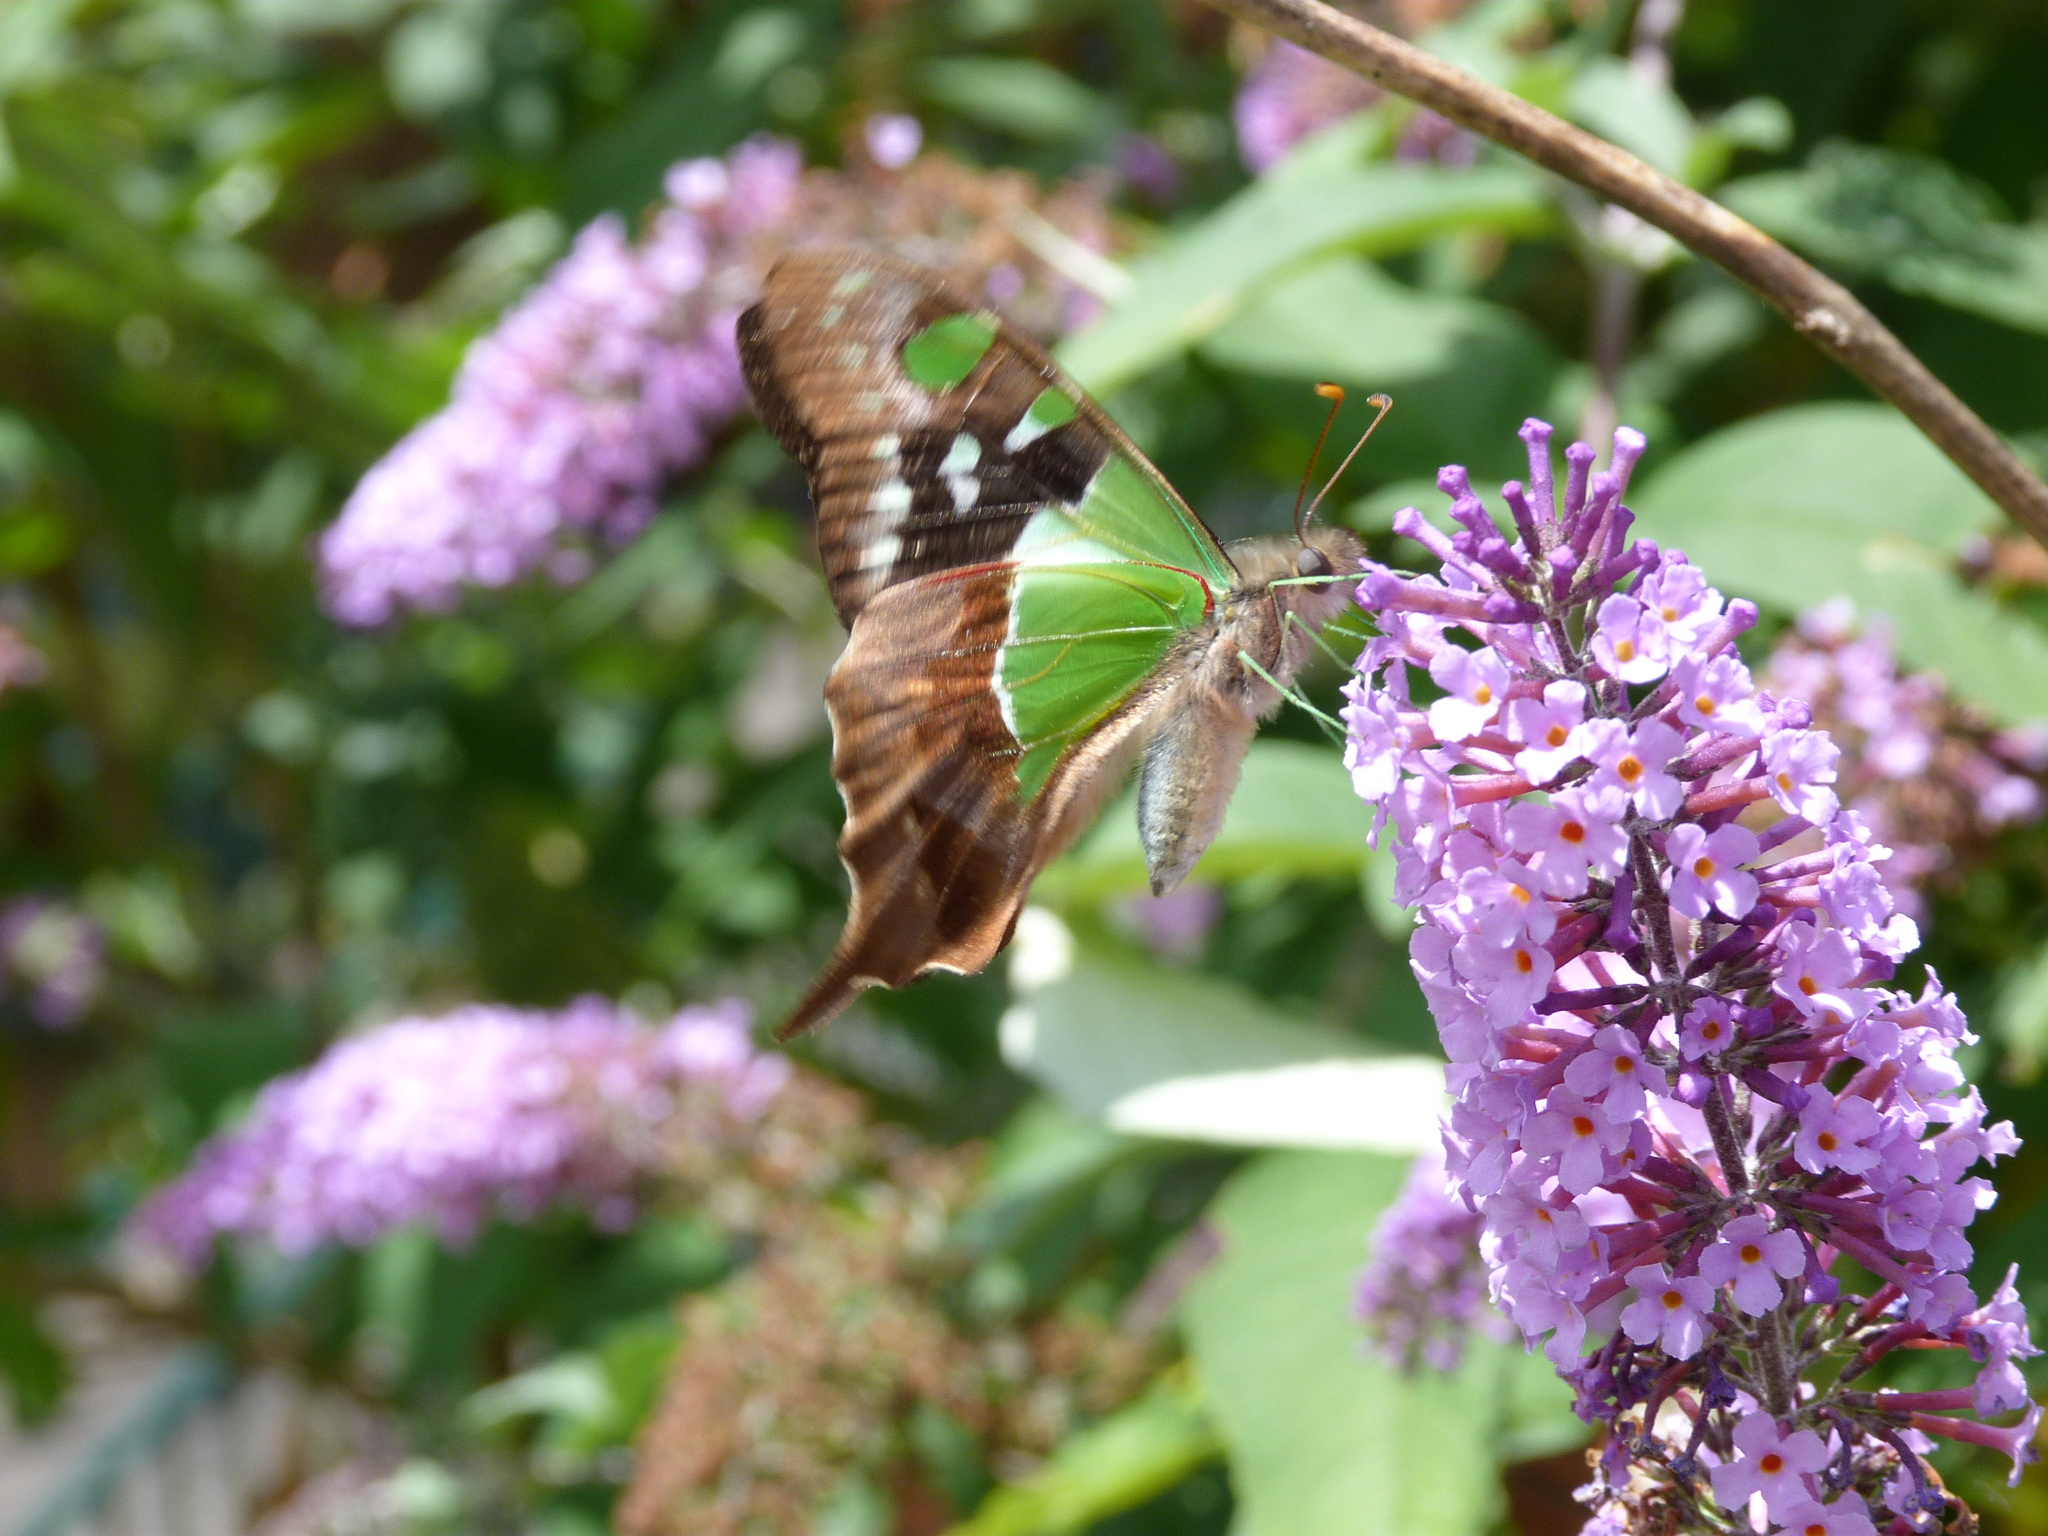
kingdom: Animalia
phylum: Arthropoda
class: Insecta
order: Lepidoptera
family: Papilionidae
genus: Graphium
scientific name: Graphium macleayanus
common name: Macleay's swallowtail
